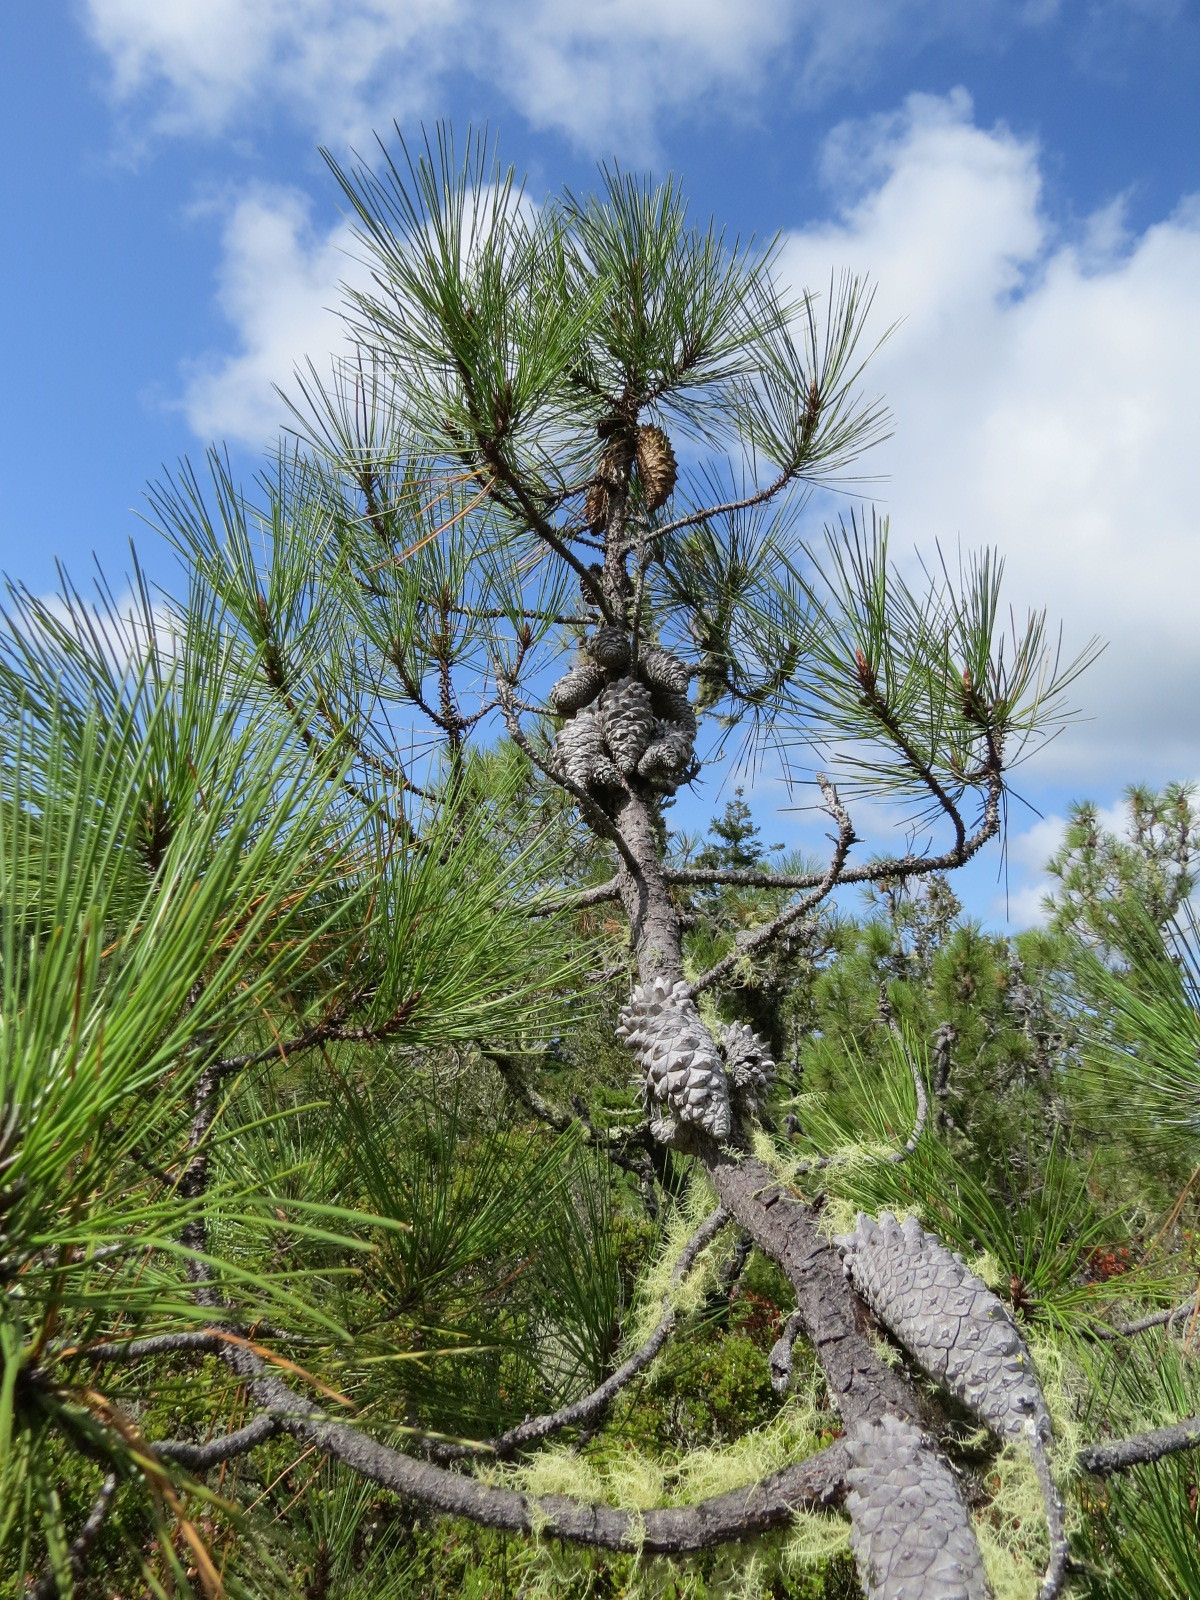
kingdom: Plantae
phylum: Tracheophyta
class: Pinopsida
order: Pinales
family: Pinaceae
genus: Pinus
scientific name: Pinus attenuata
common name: Knobcone pine
